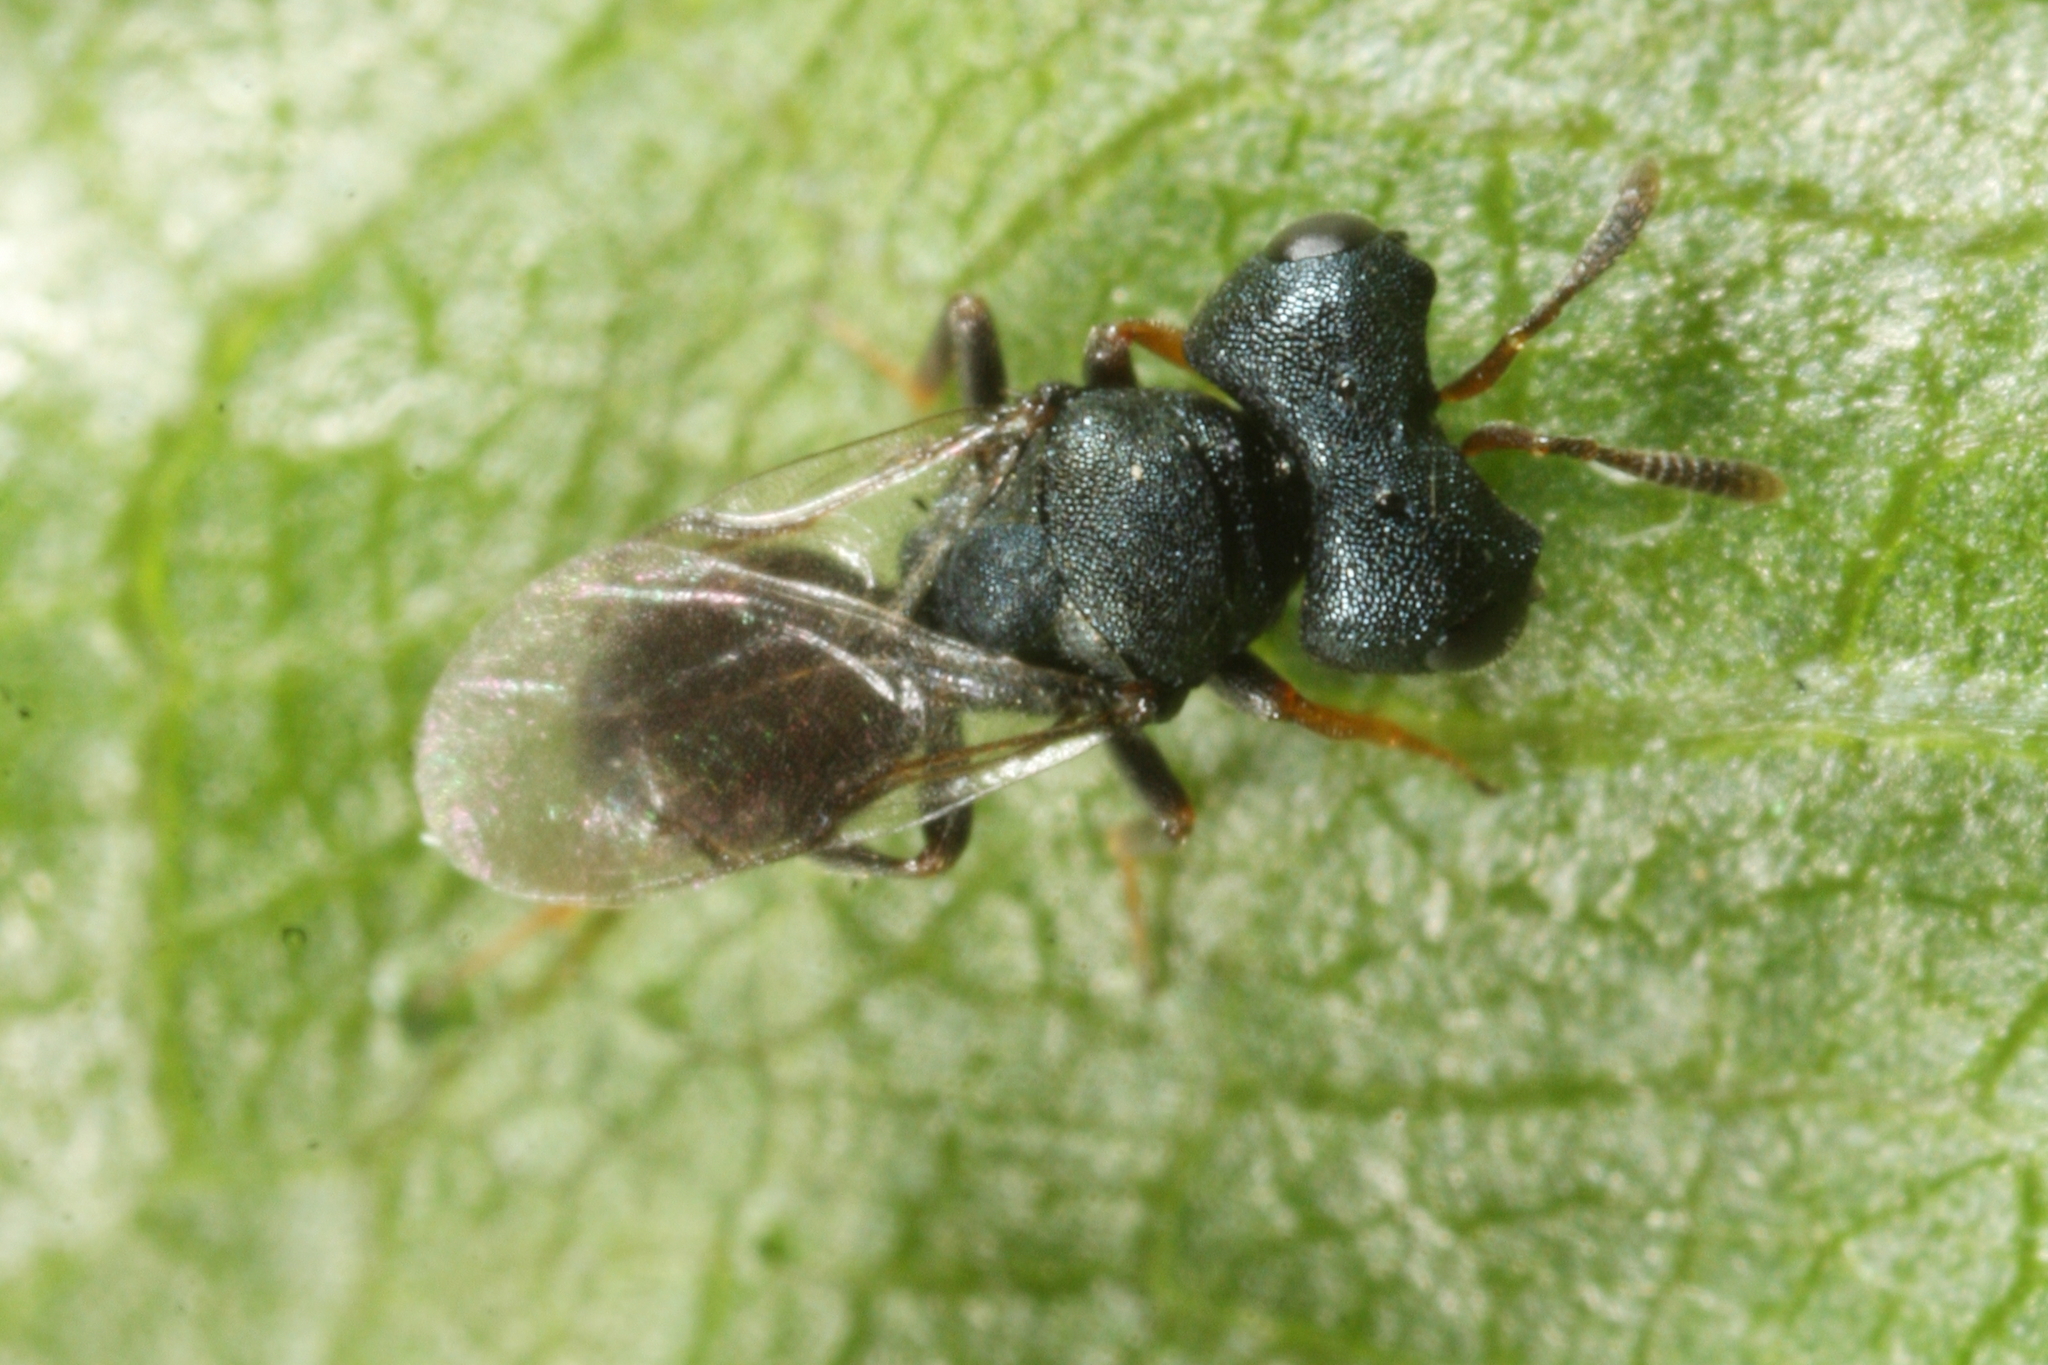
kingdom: Animalia
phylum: Arthropoda
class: Insecta
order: Hymenoptera
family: Pteromalidae
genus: Cratomus
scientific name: Cratomus megacephalus
